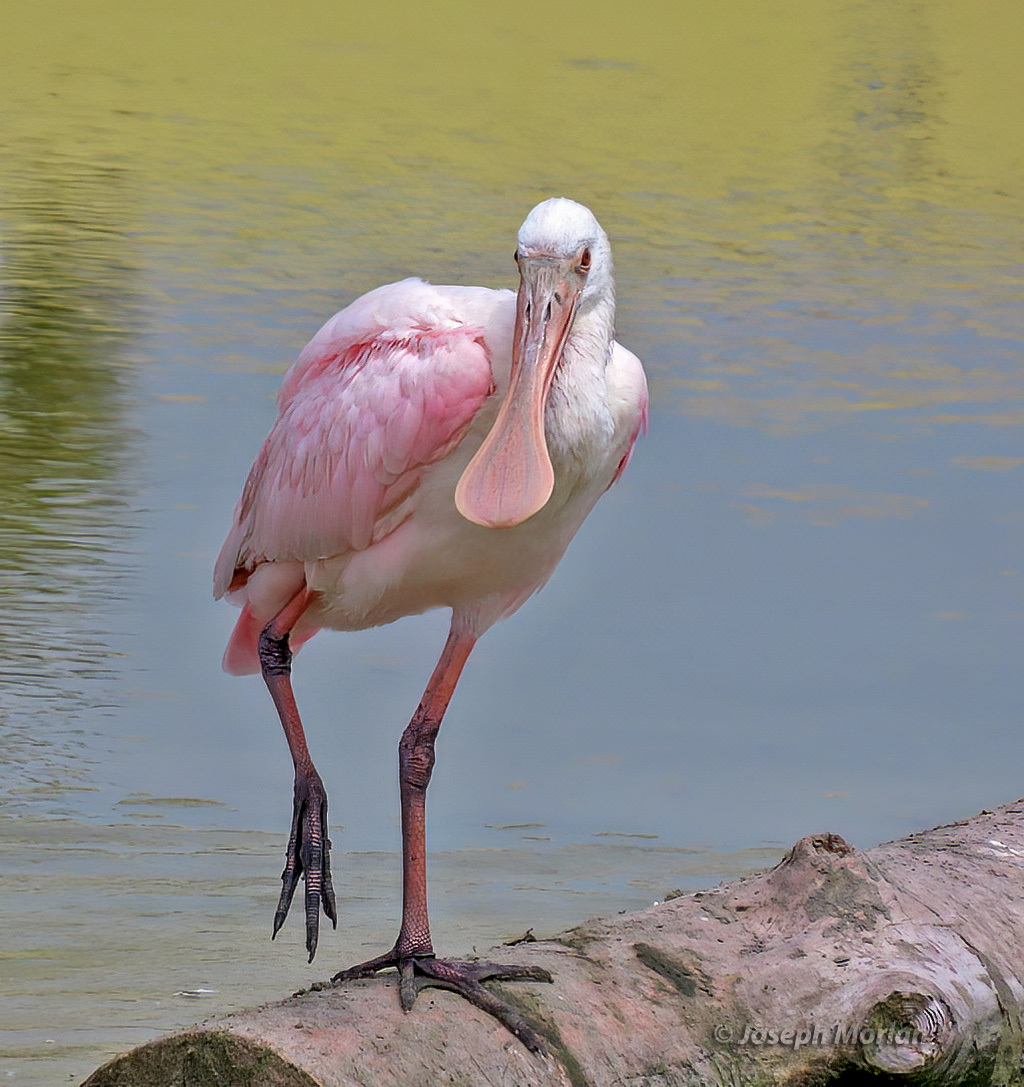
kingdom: Animalia
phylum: Chordata
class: Aves
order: Pelecaniformes
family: Threskiornithidae
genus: Platalea
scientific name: Platalea ajaja
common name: Roseate spoonbill
